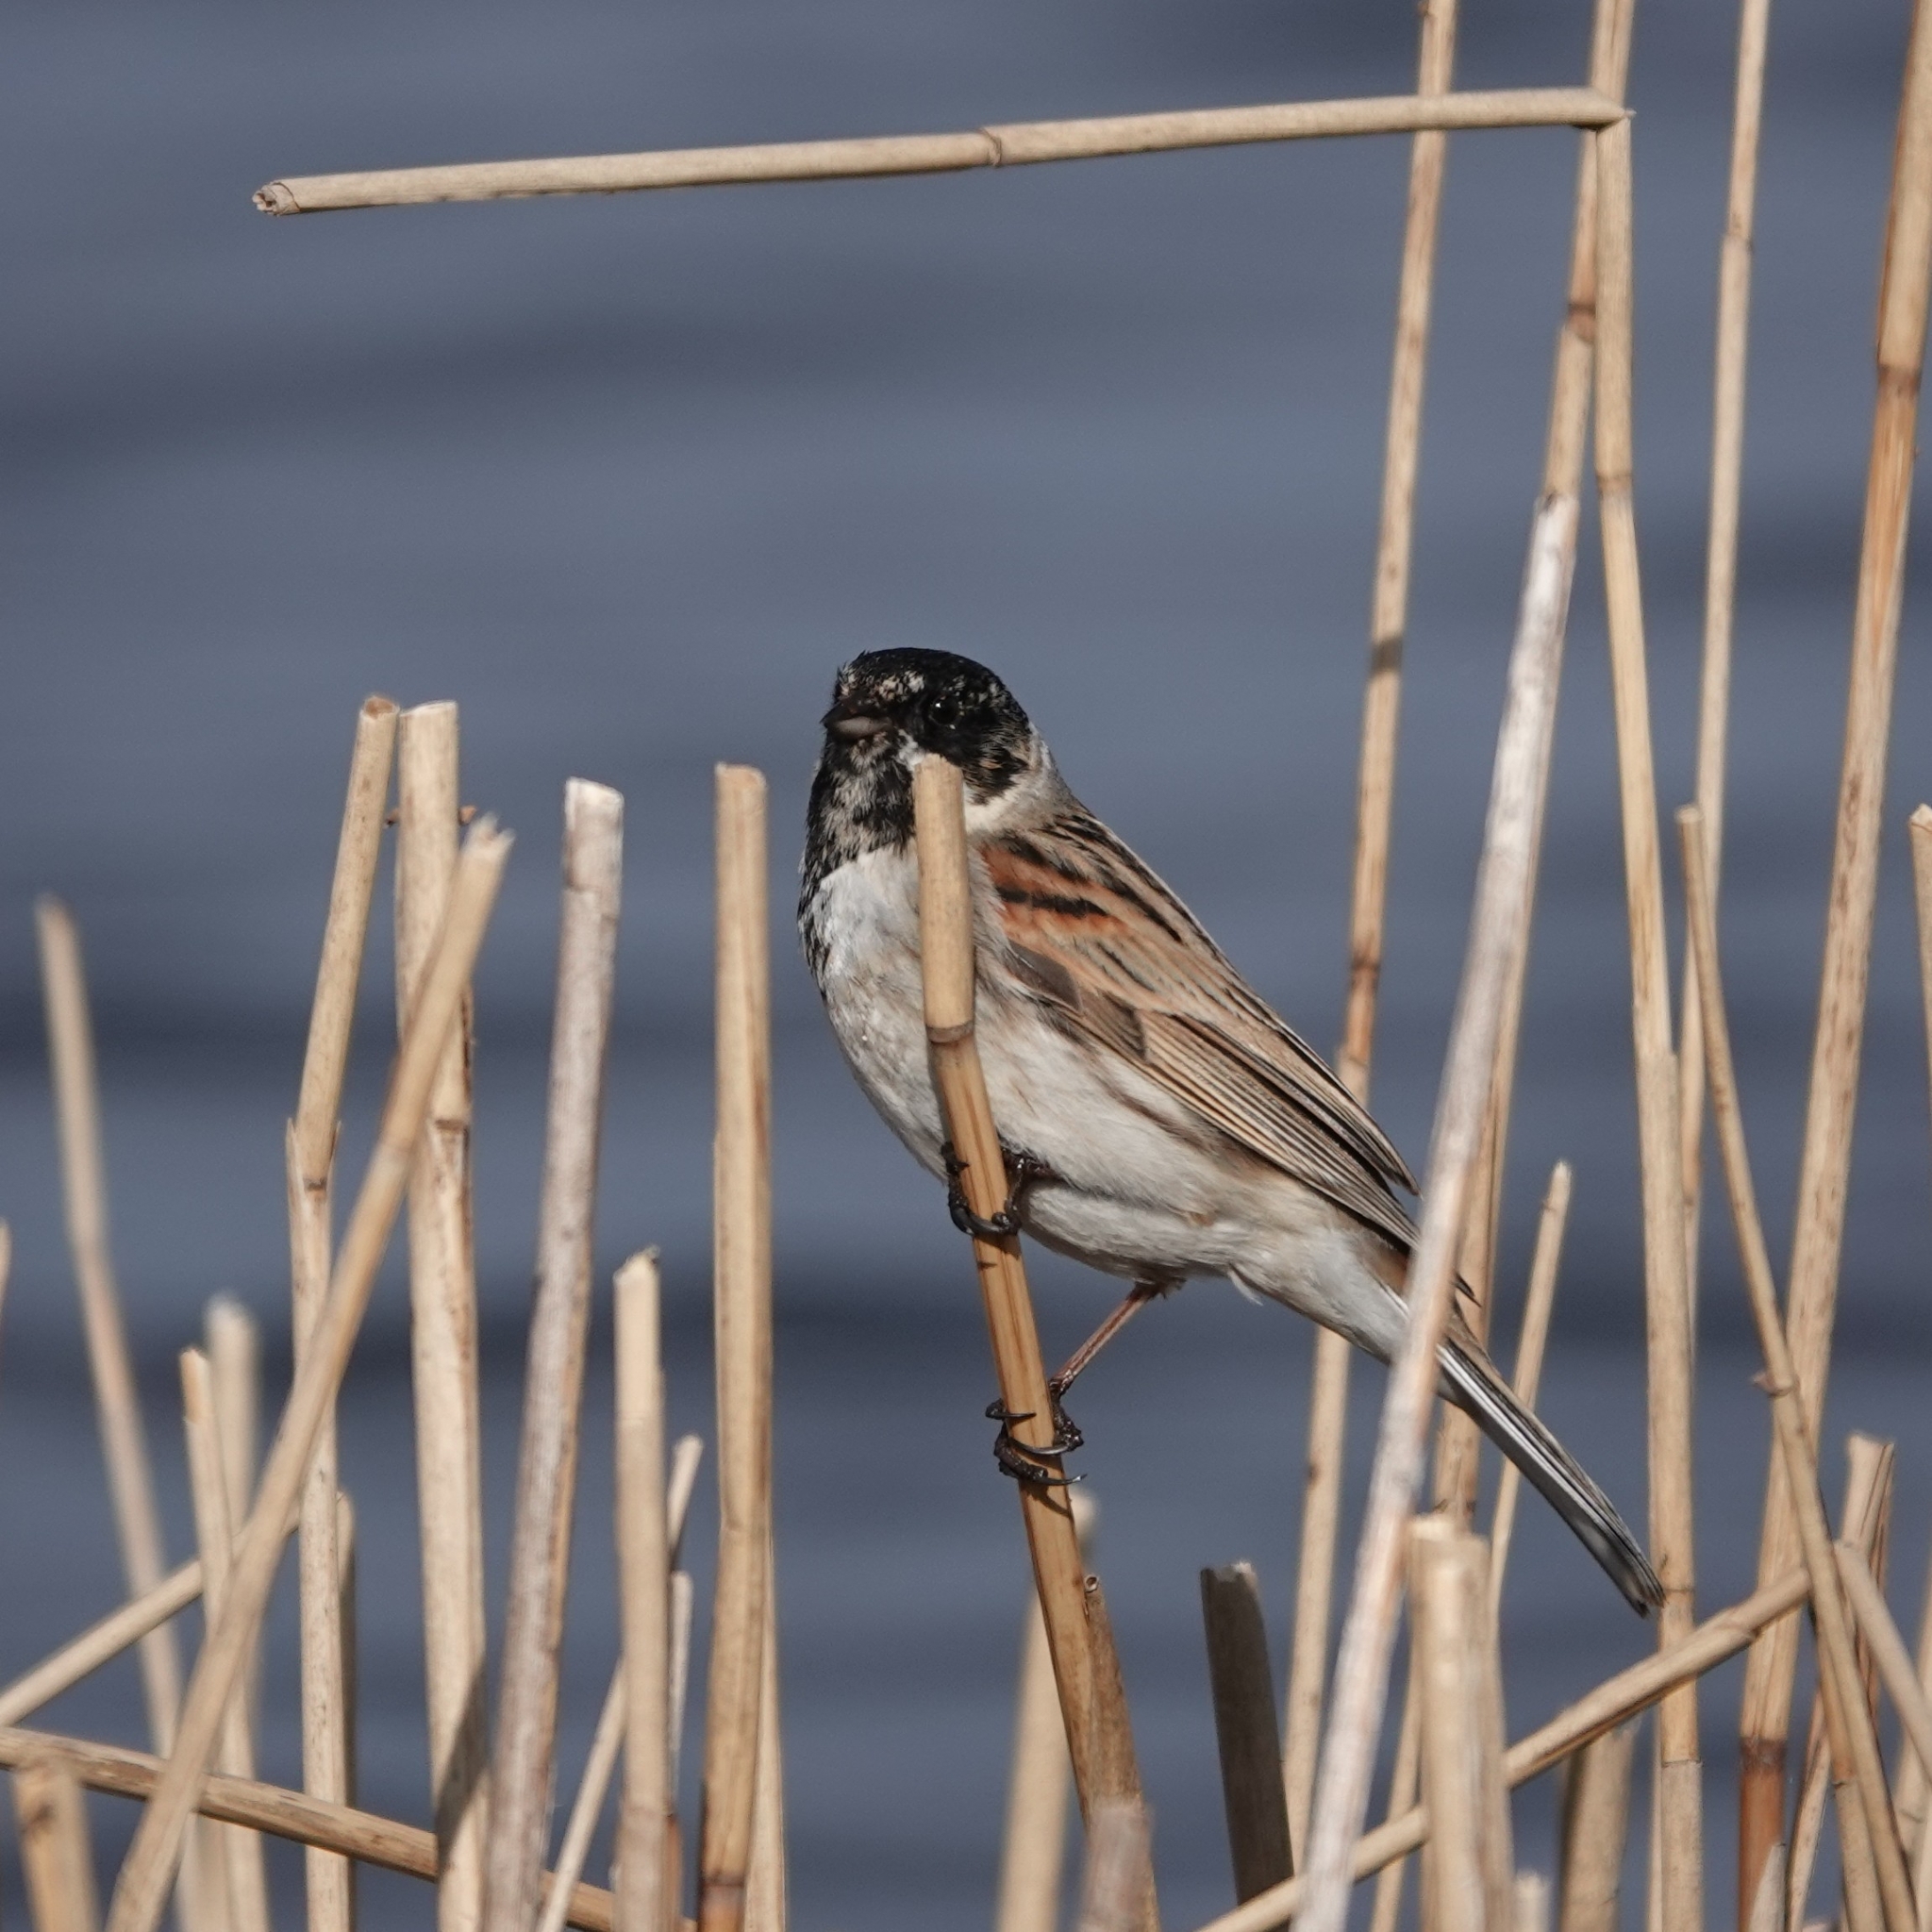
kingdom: Animalia
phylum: Chordata
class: Aves
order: Passeriformes
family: Emberizidae
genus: Emberiza
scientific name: Emberiza schoeniclus
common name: Reed bunting
